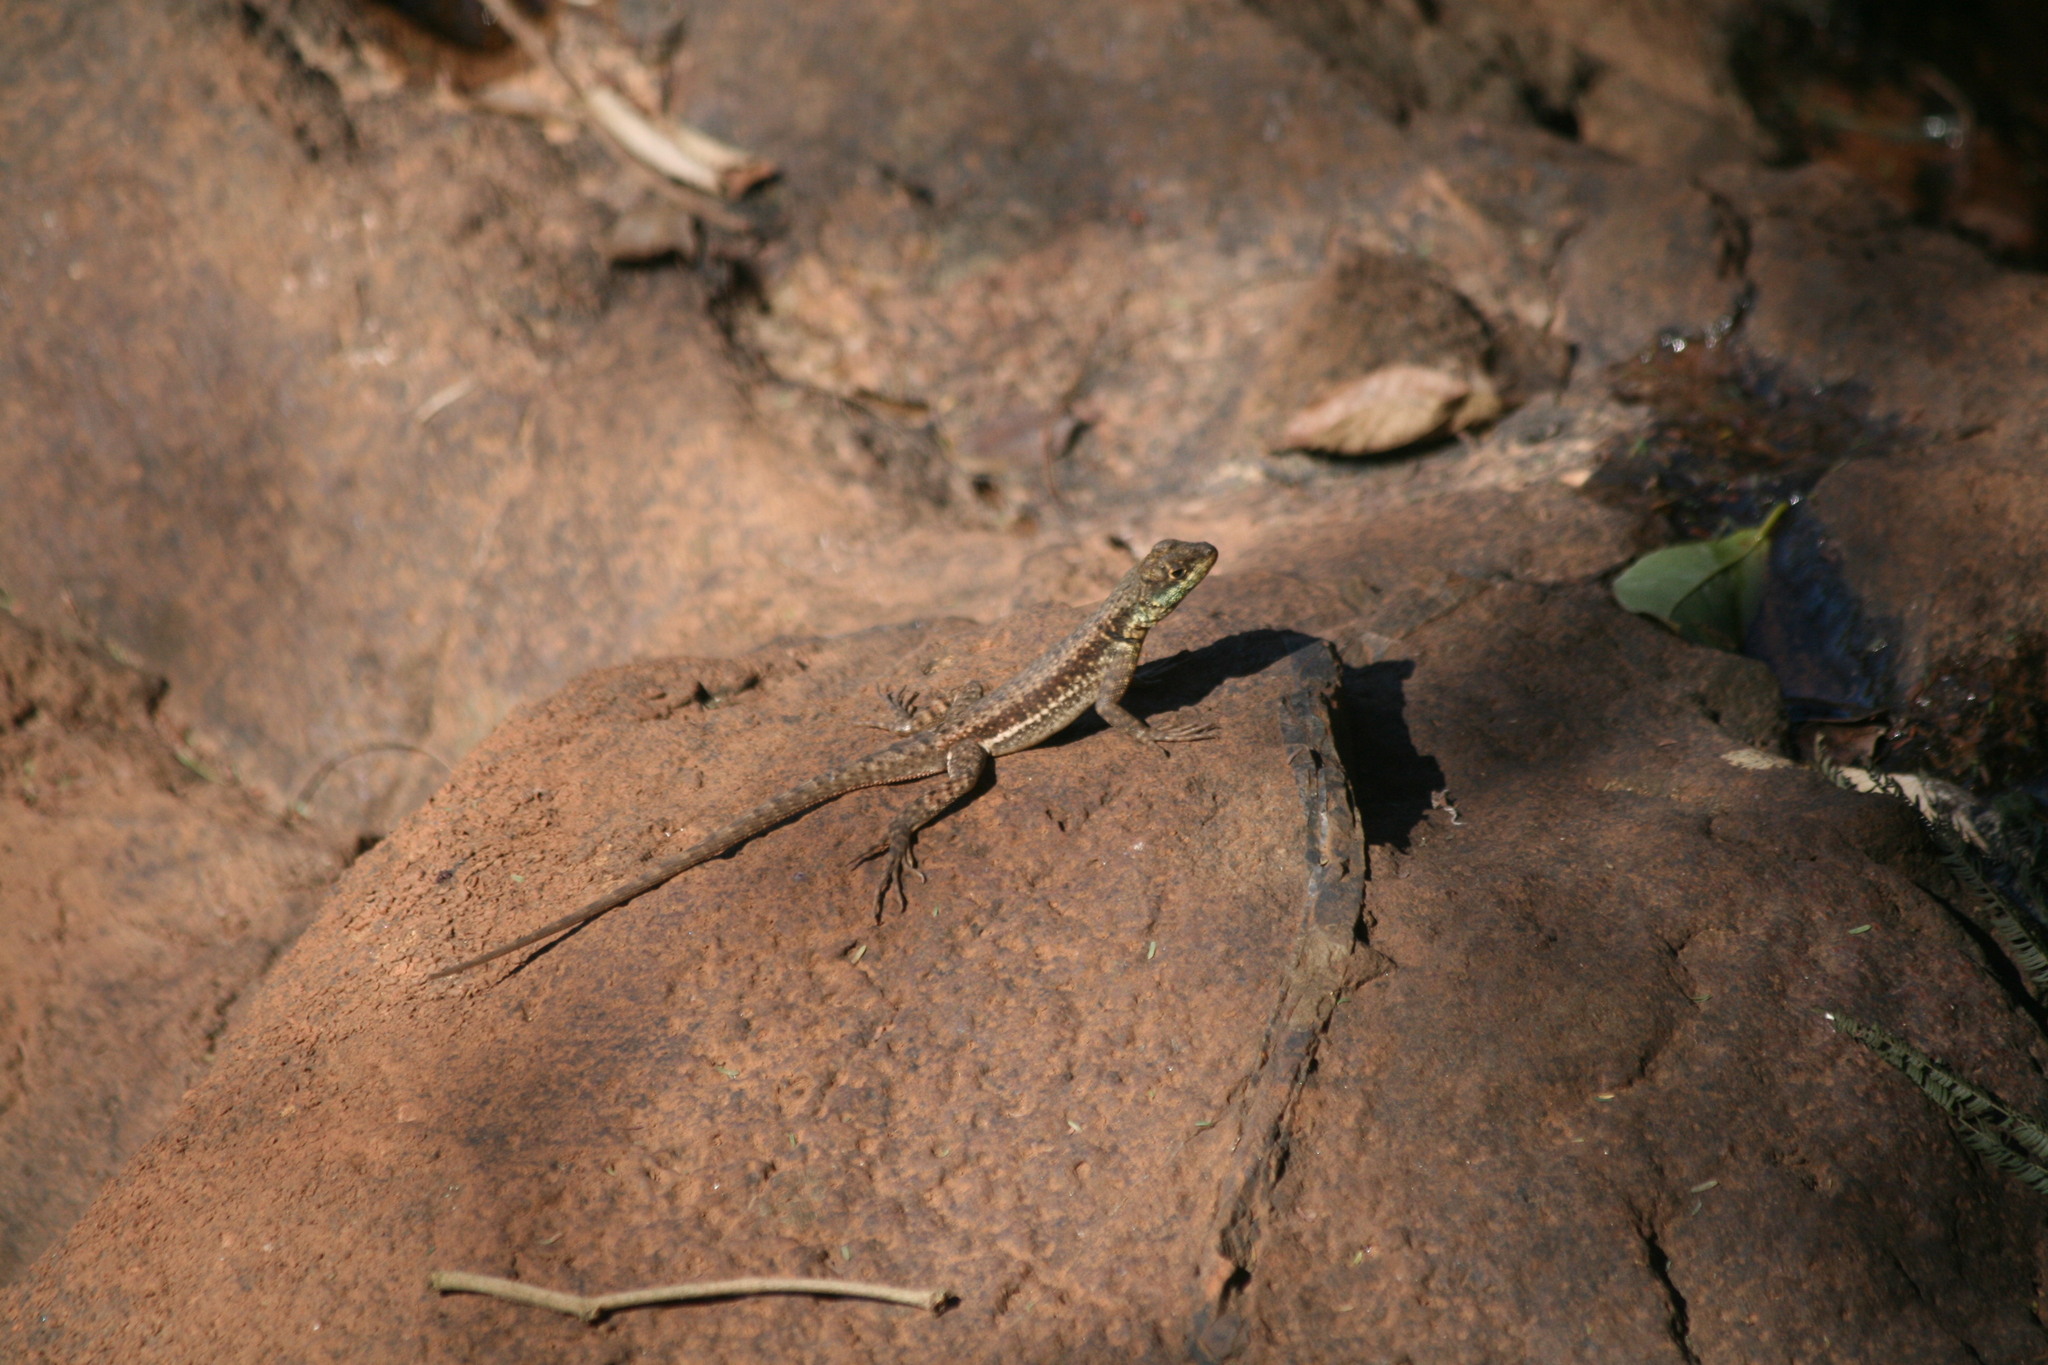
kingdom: Animalia
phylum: Chordata
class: Squamata
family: Tropiduridae
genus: Tropidurus
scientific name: Tropidurus catalanensis
